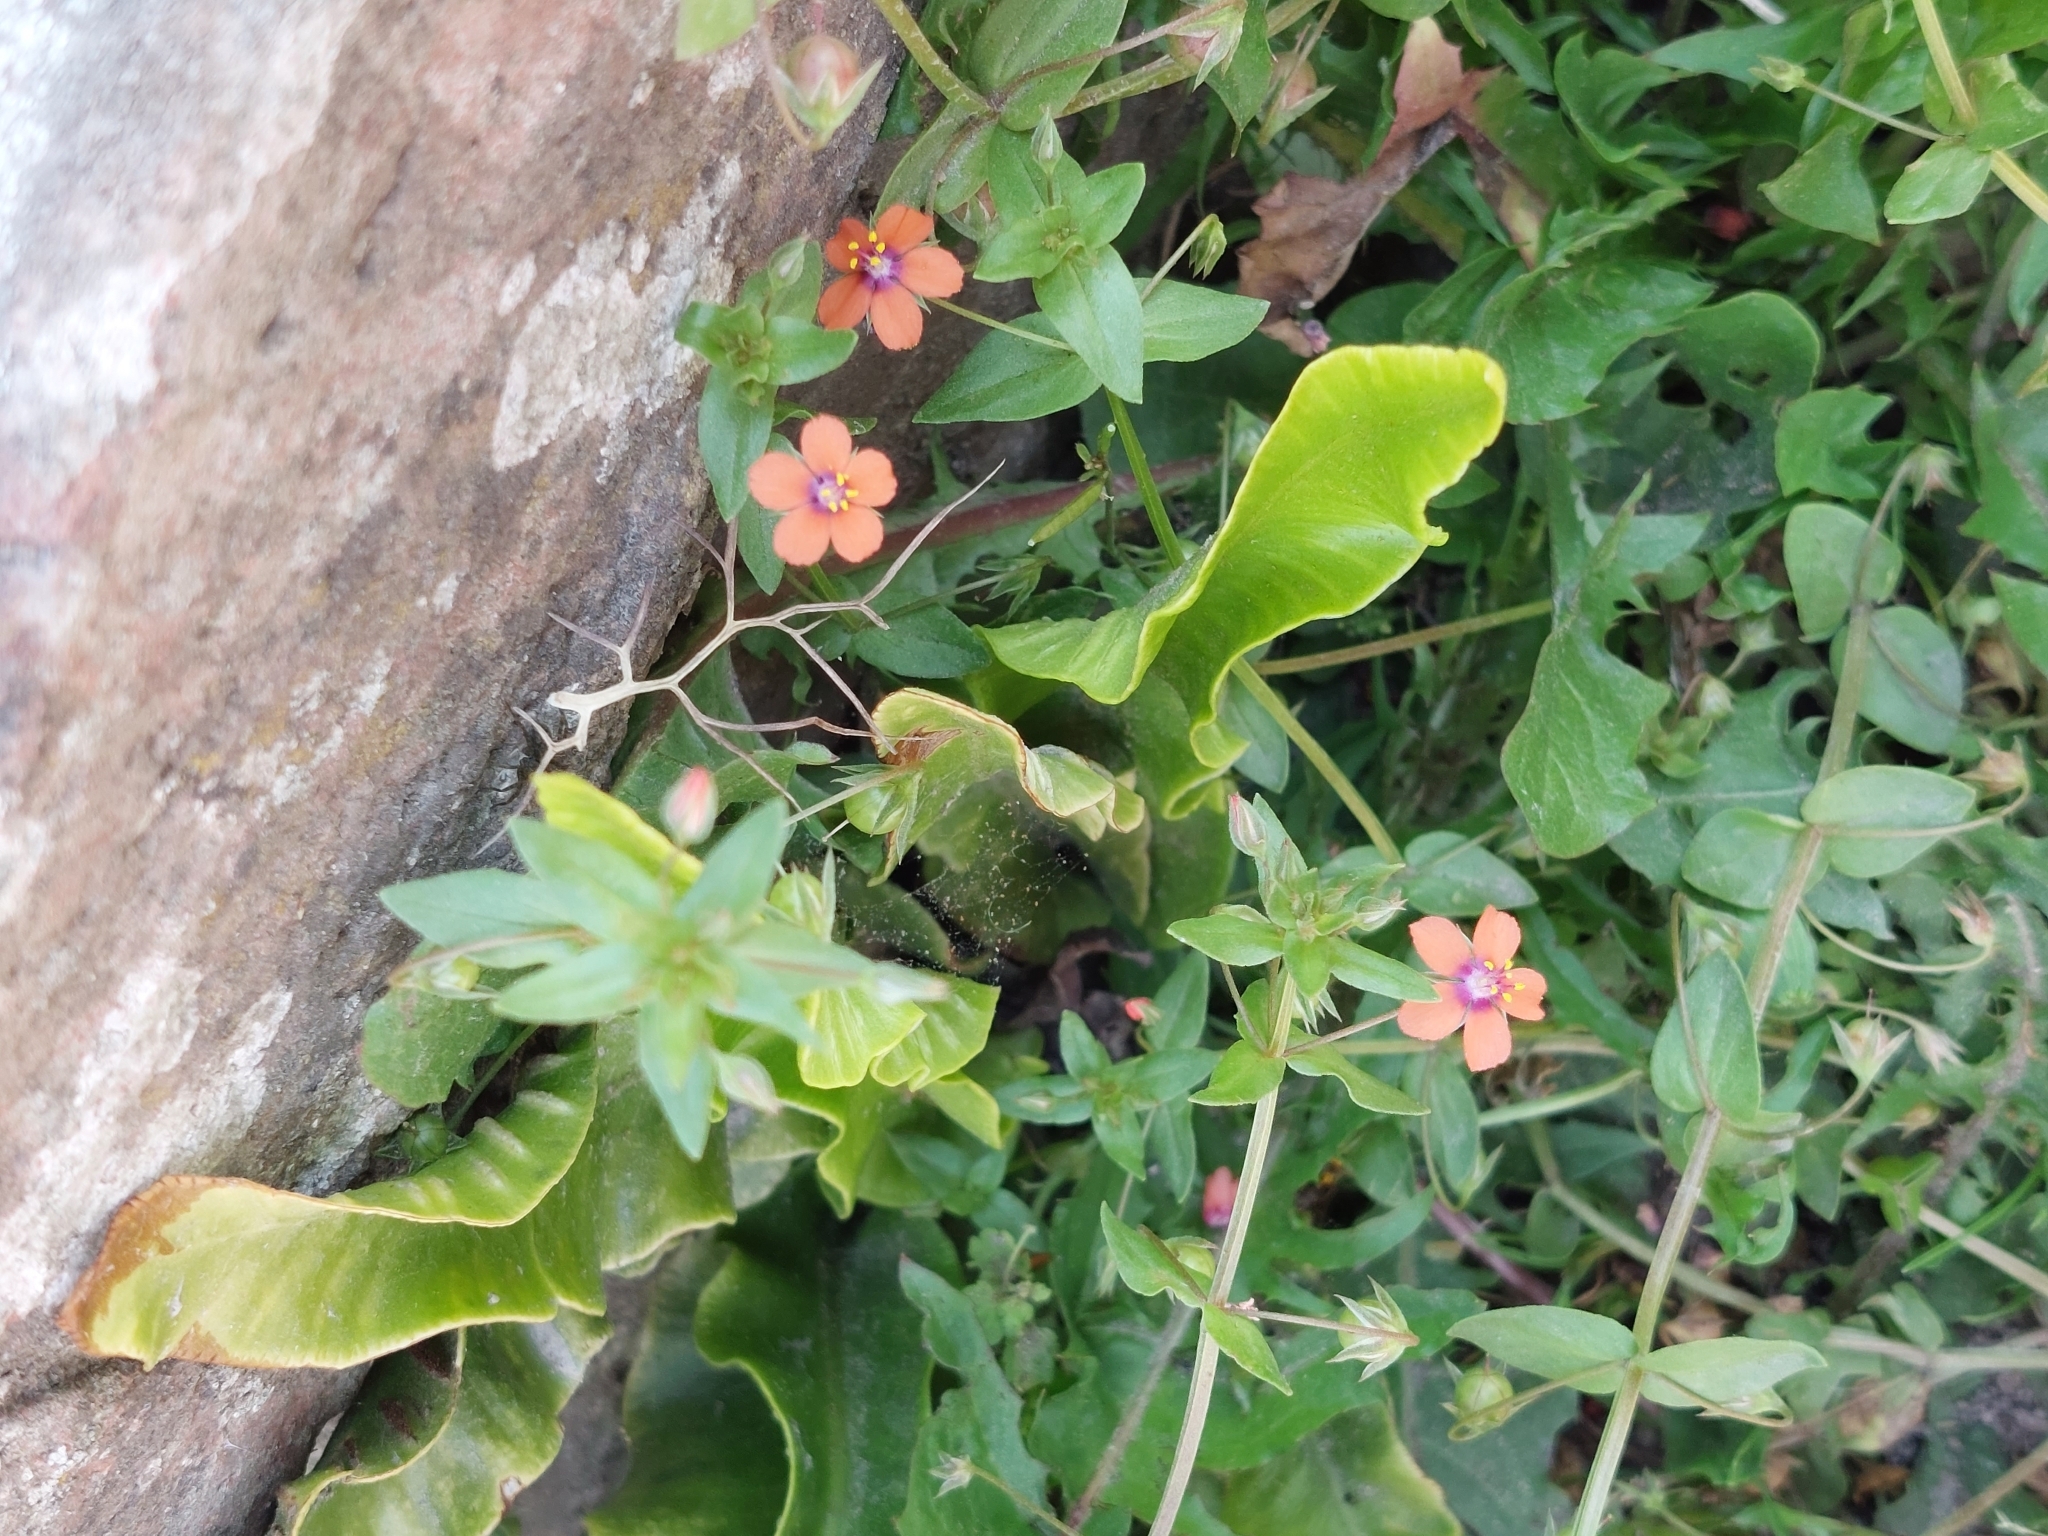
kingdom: Plantae
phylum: Tracheophyta
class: Magnoliopsida
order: Ericales
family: Primulaceae
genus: Lysimachia
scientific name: Lysimachia arvensis
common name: Scarlet pimpernel
